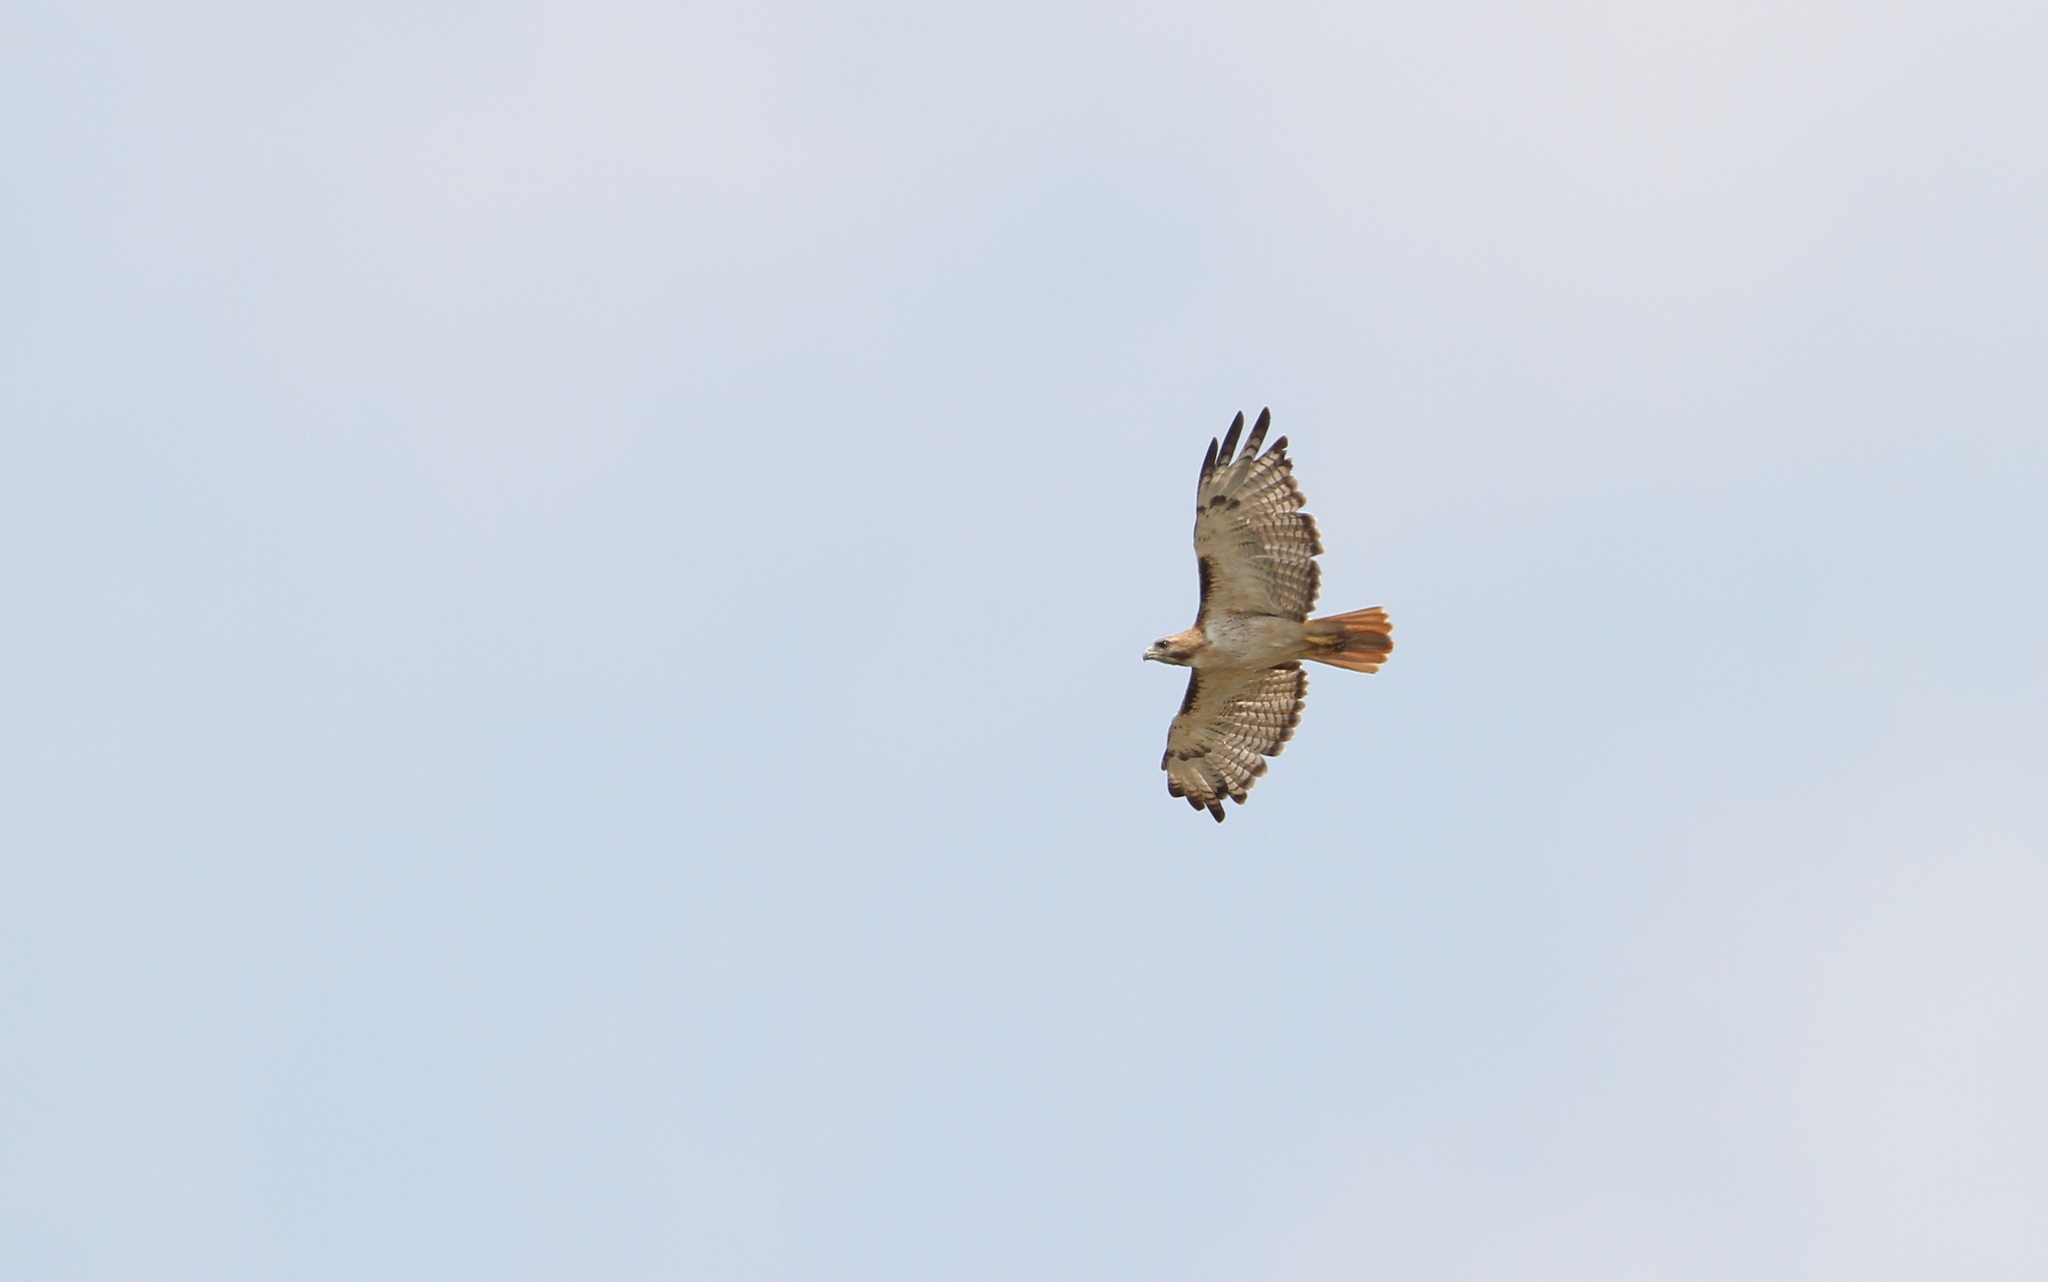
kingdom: Animalia
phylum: Chordata
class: Aves
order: Accipitriformes
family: Accipitridae
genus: Buteo
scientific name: Buteo jamaicensis
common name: Red-tailed hawk
